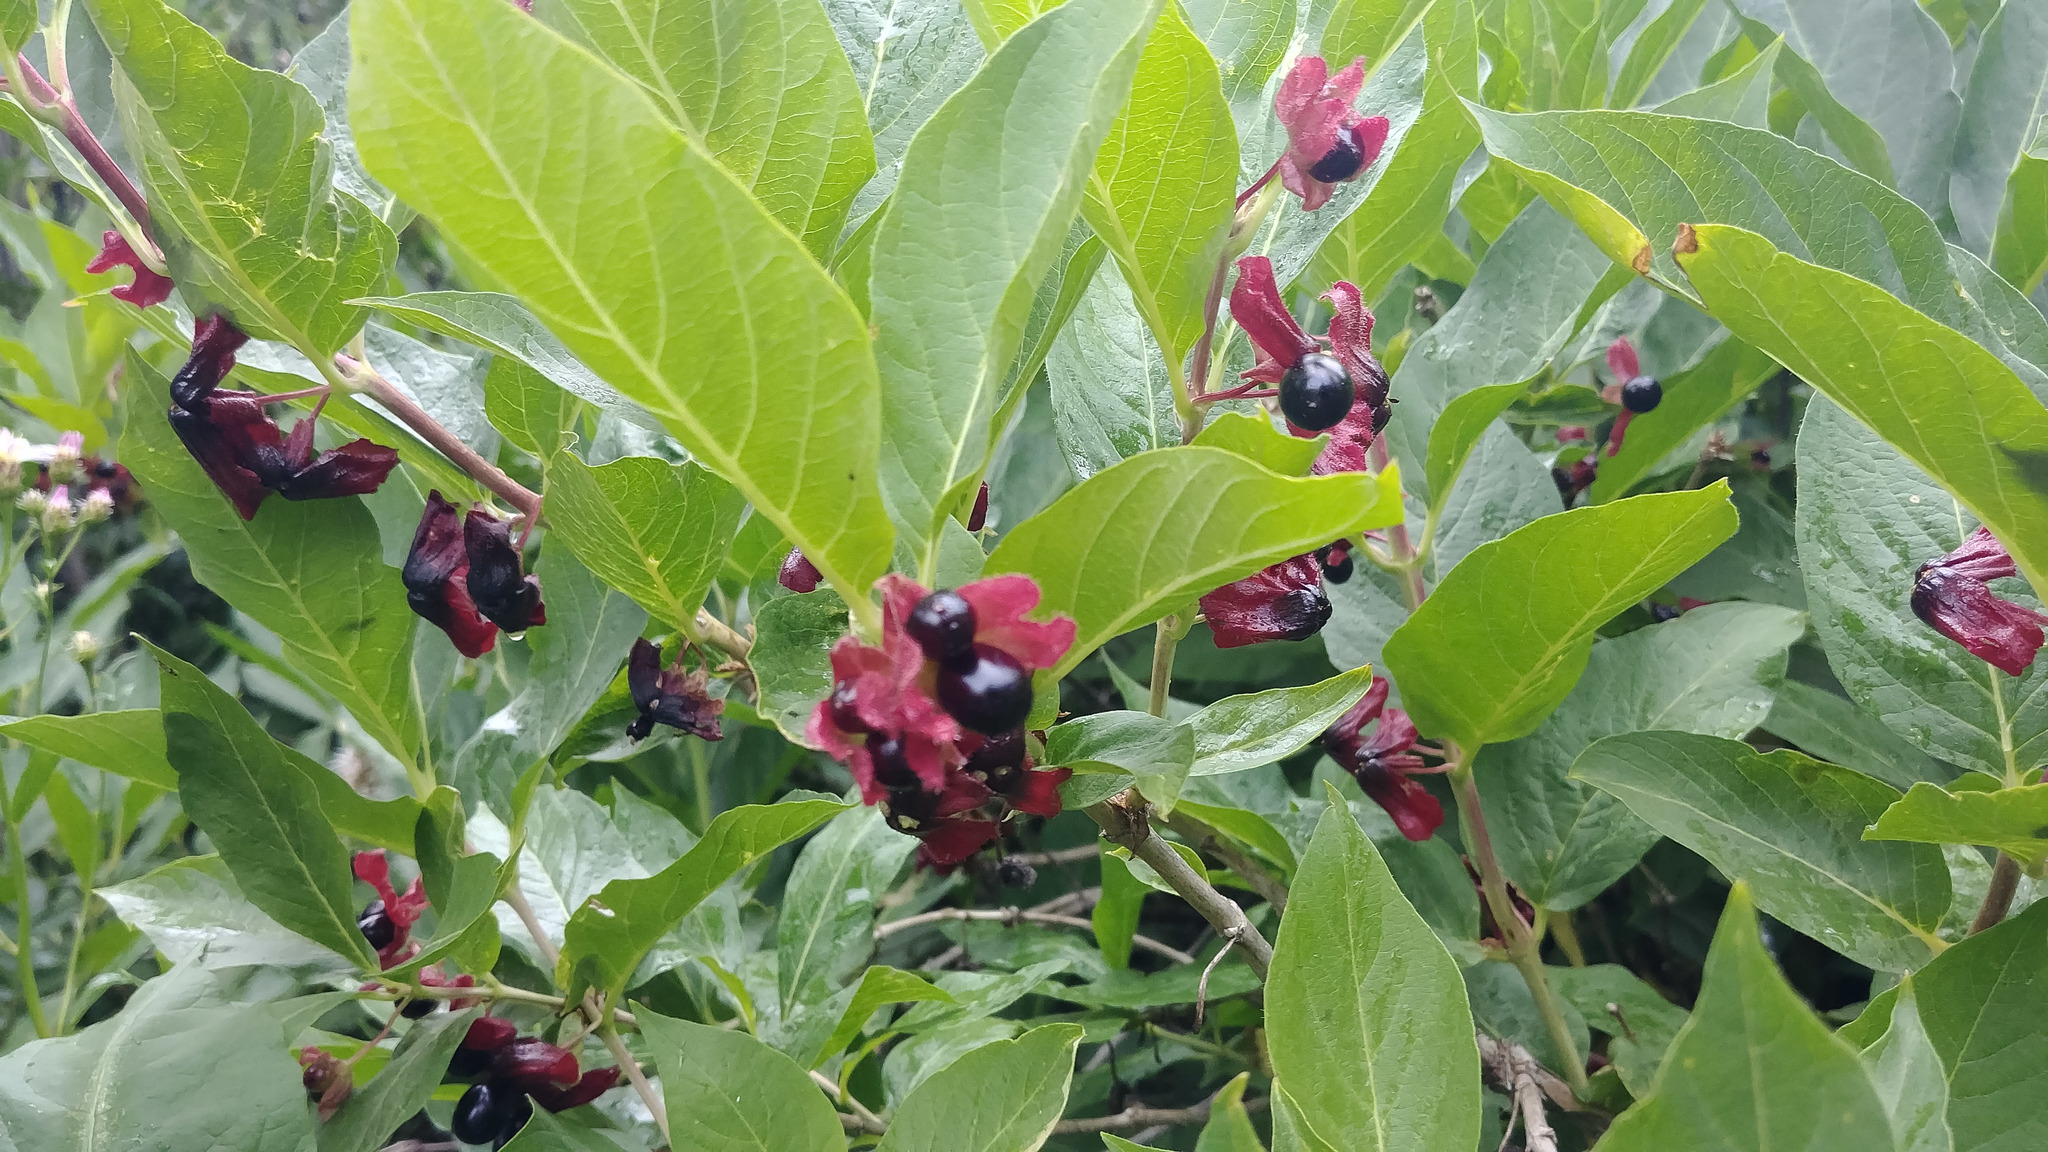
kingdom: Plantae
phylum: Tracheophyta
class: Magnoliopsida
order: Dipsacales
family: Caprifoliaceae
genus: Lonicera
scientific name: Lonicera involucrata
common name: Californian honeysuckle
